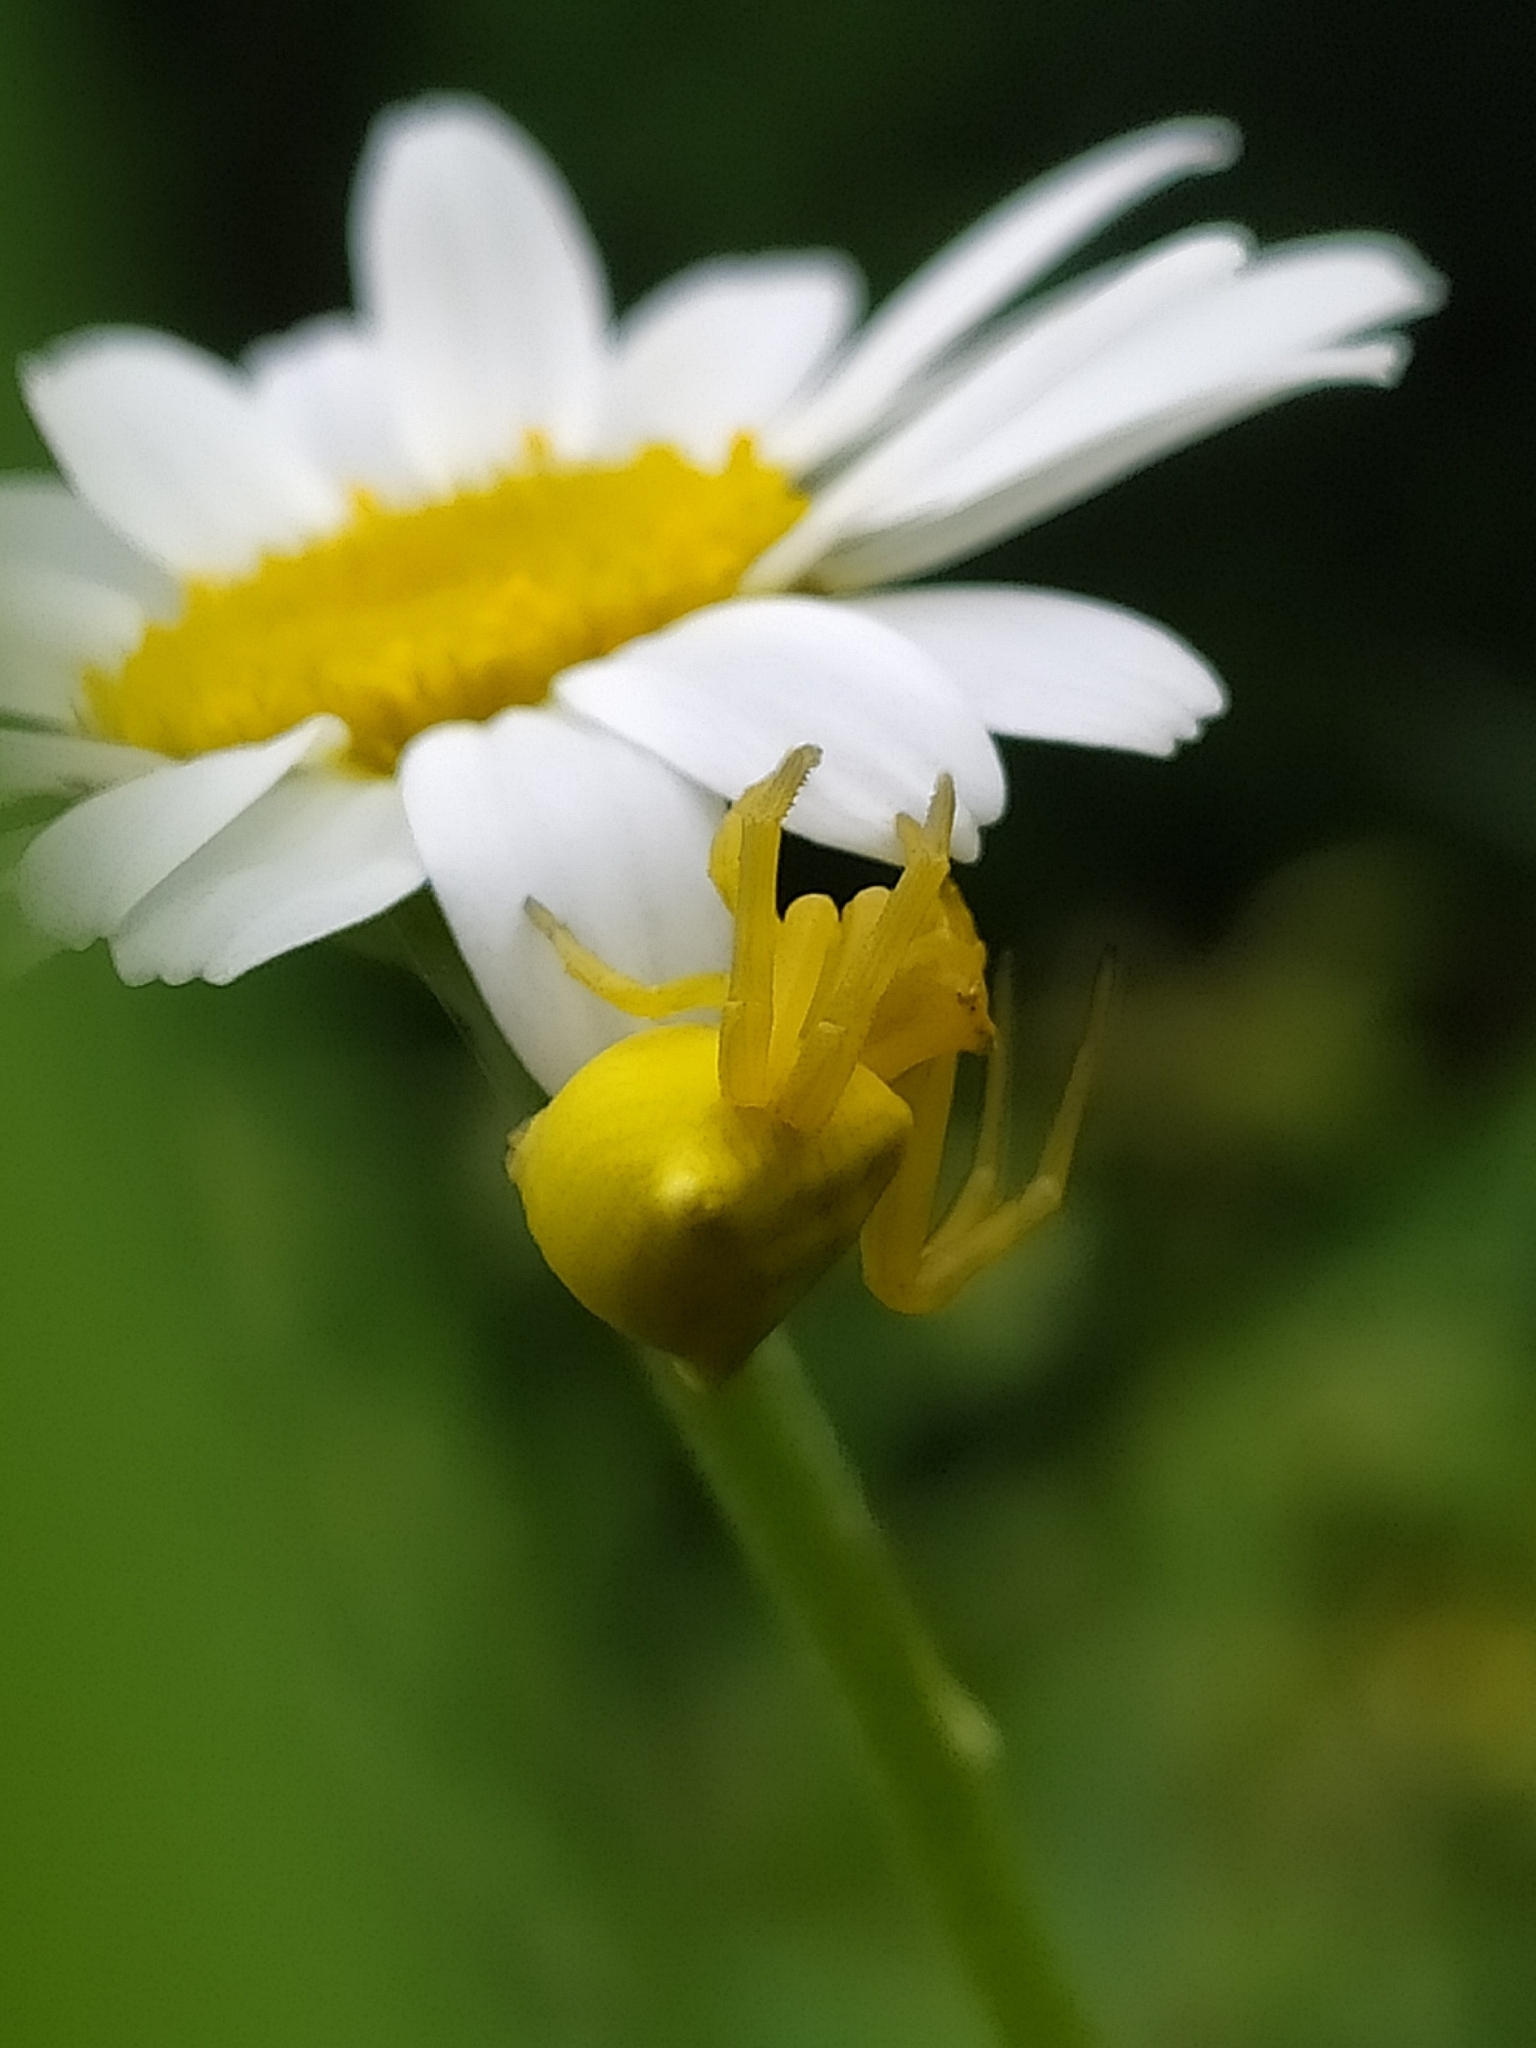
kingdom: Animalia
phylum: Arthropoda
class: Arachnida
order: Araneae
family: Thomisidae
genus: Thomisus
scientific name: Thomisus onustus
